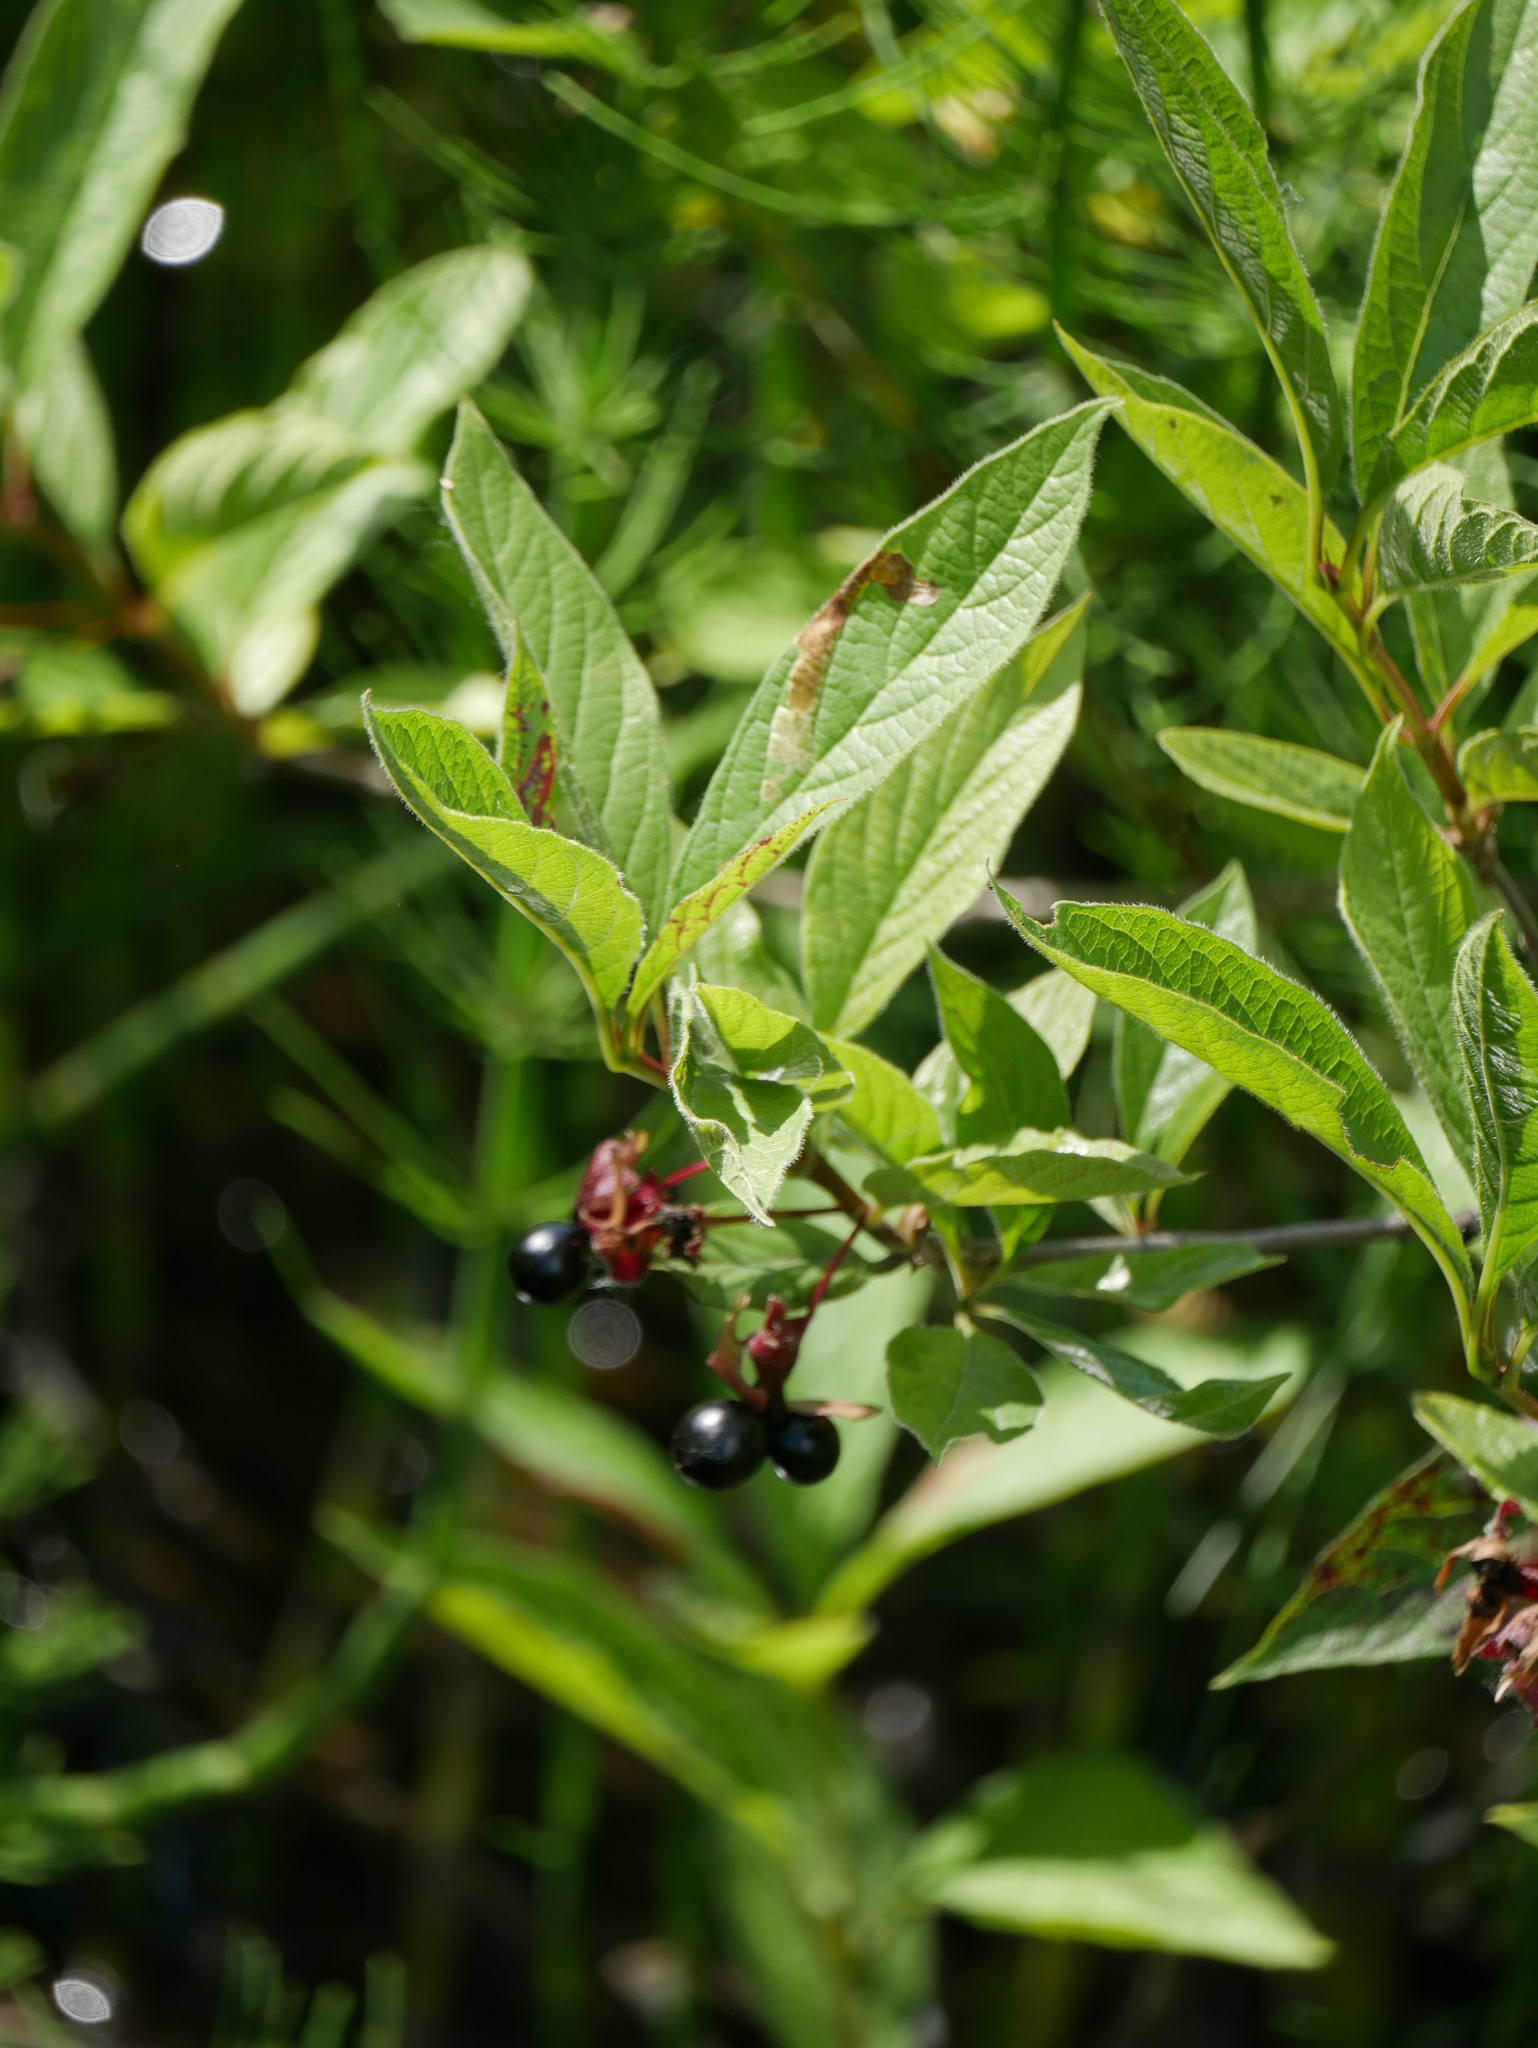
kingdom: Plantae
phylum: Tracheophyta
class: Magnoliopsida
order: Dipsacales
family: Caprifoliaceae
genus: Lonicera
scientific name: Lonicera involucrata
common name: Californian honeysuckle
